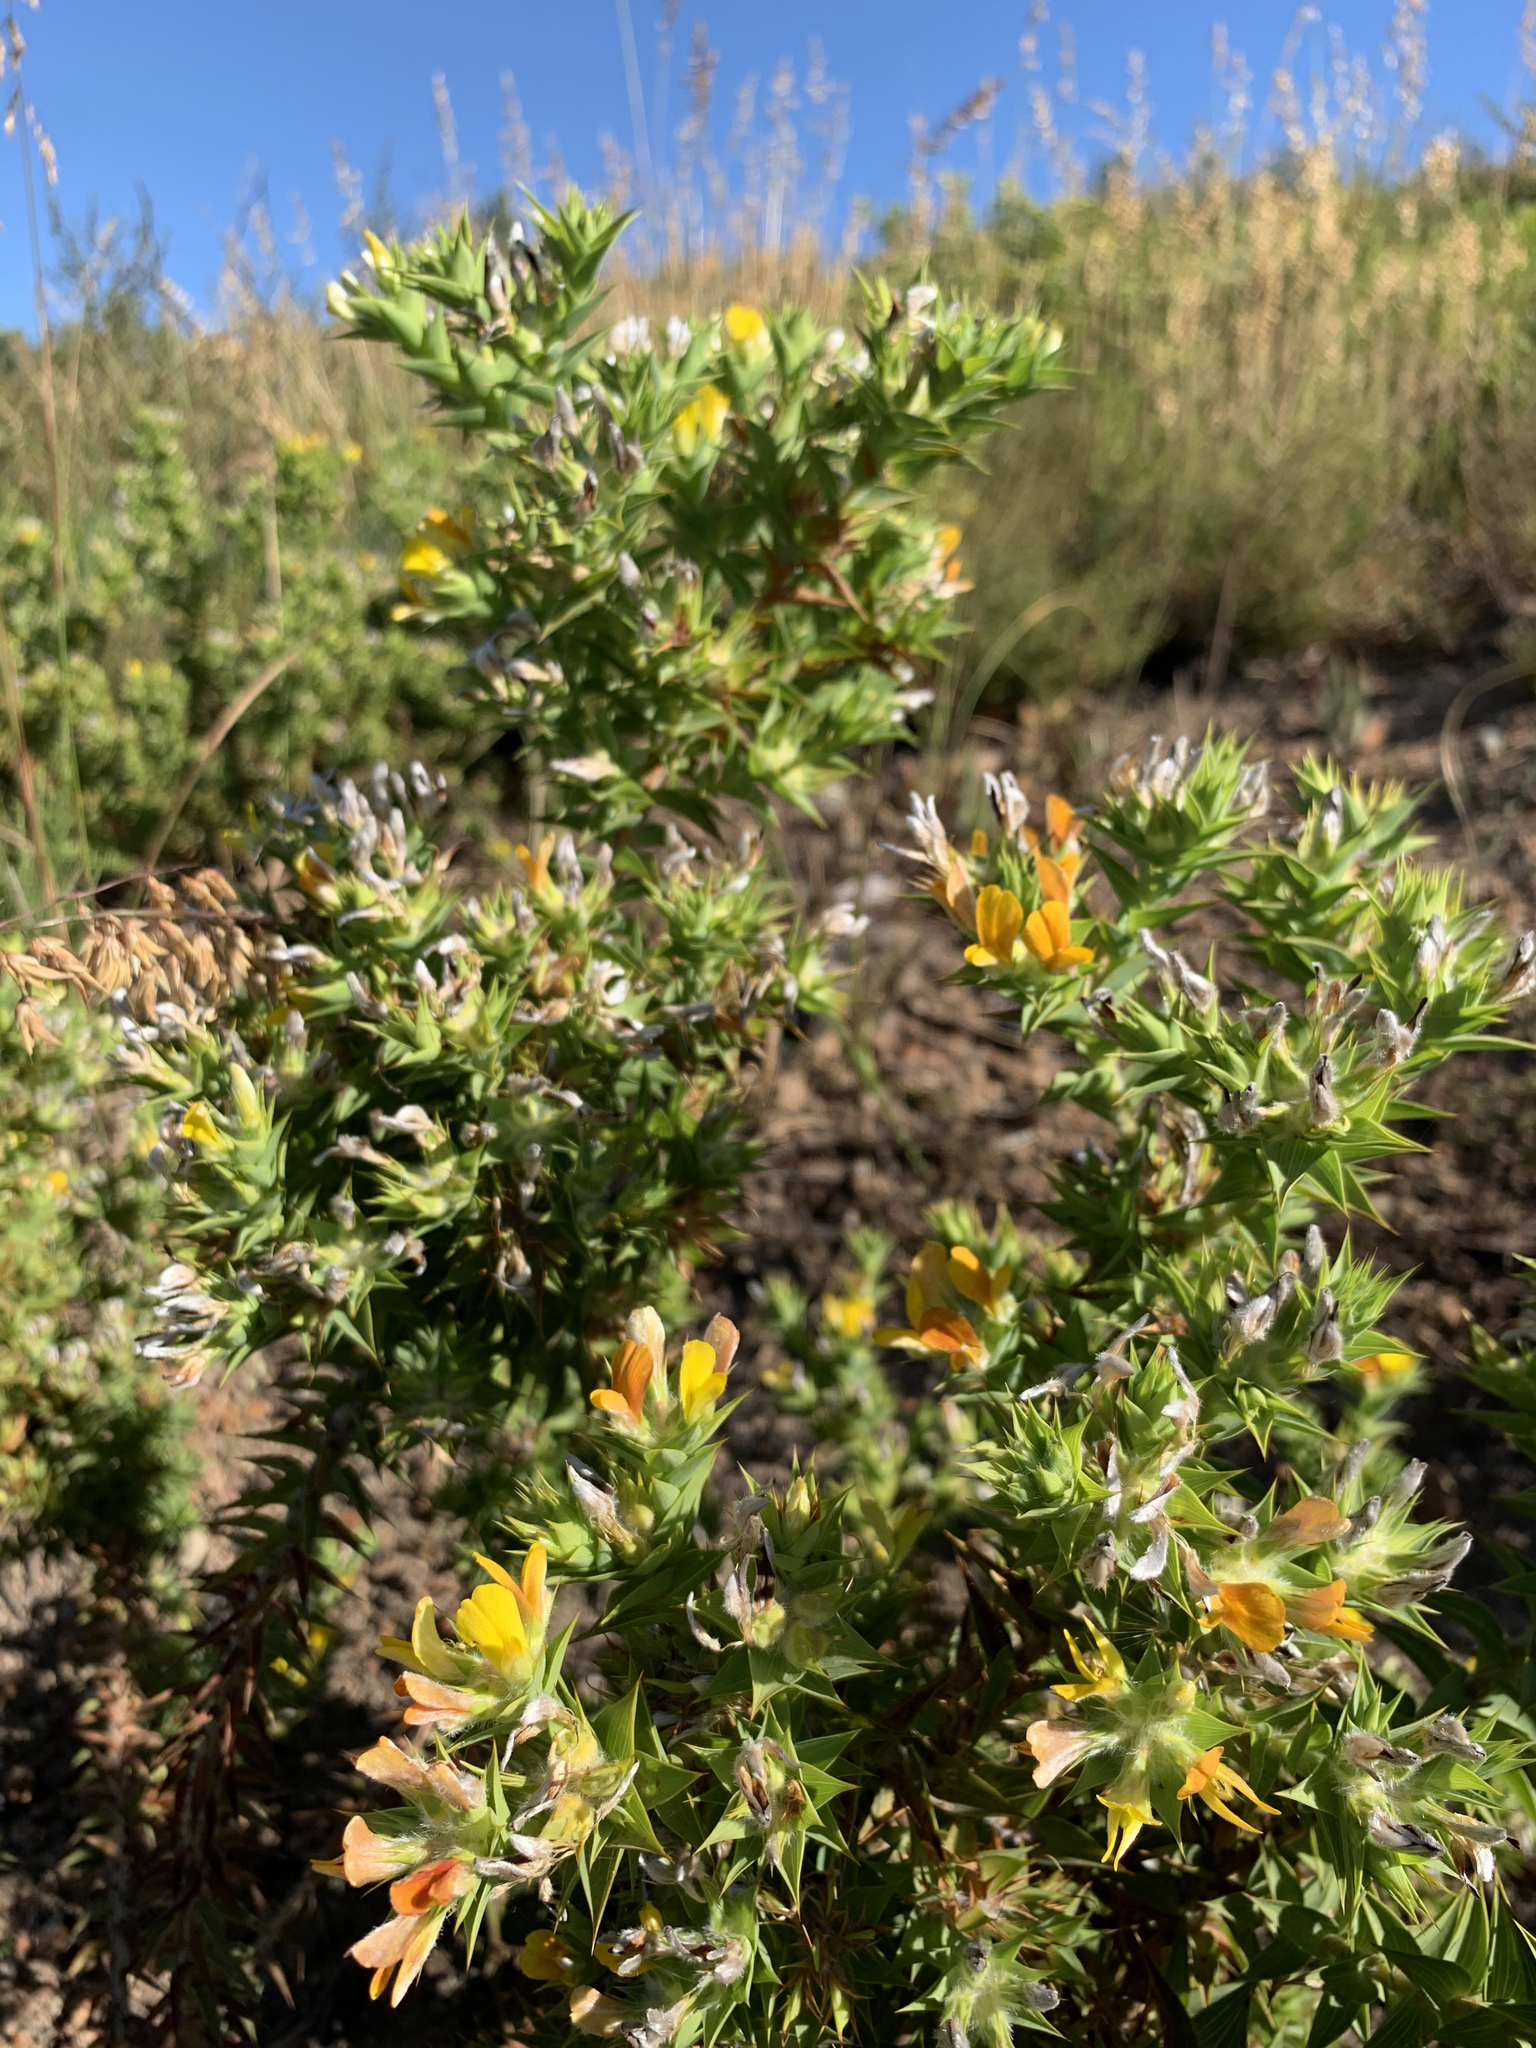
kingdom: Plantae
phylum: Tracheophyta
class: Magnoliopsida
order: Fabales
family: Fabaceae
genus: Aspalathus
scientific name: Aspalathus cordata
